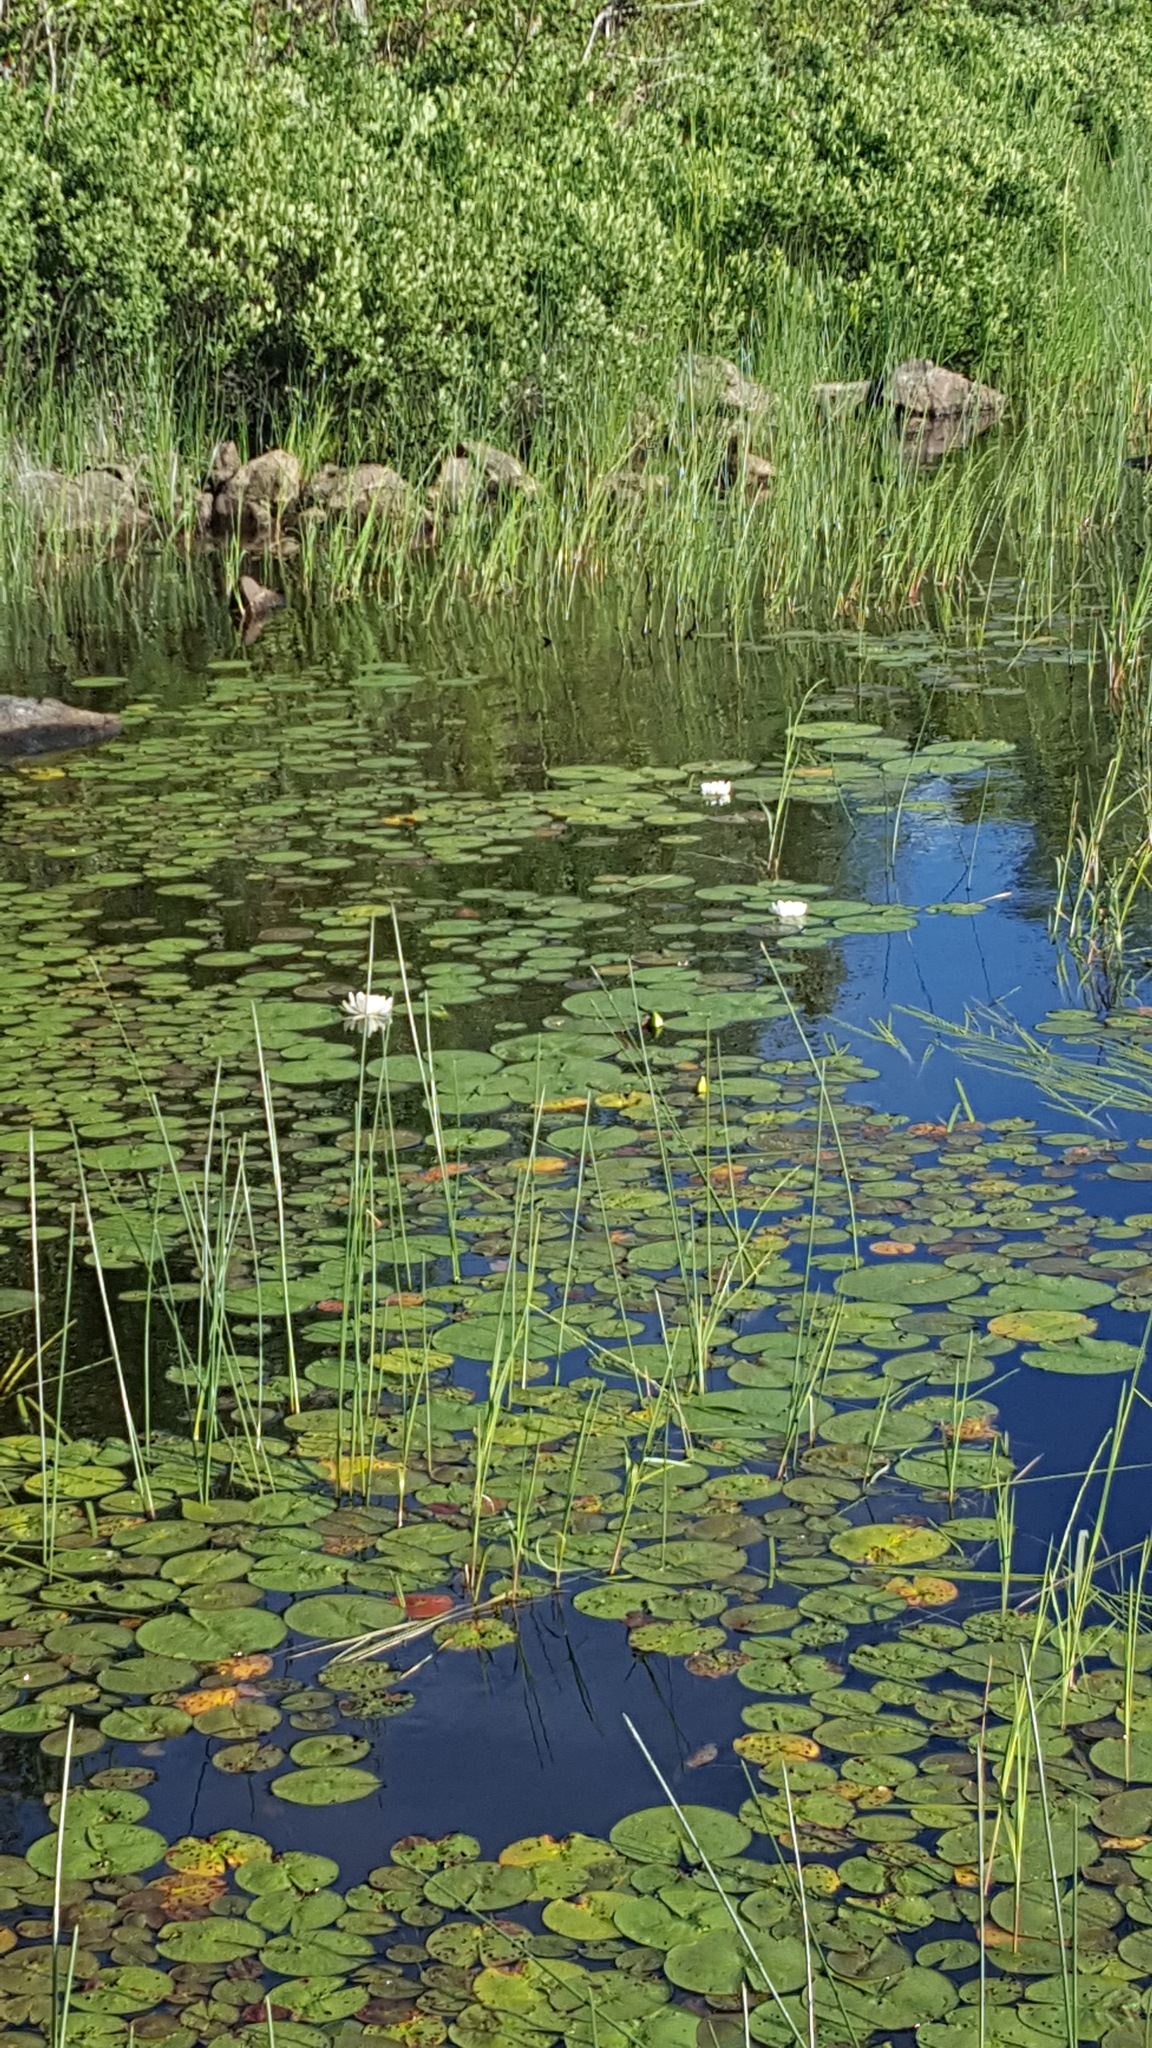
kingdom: Plantae
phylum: Tracheophyta
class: Magnoliopsida
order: Nymphaeales
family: Nymphaeaceae
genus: Nymphaea
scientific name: Nymphaea odorata
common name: Fragrant water-lily
